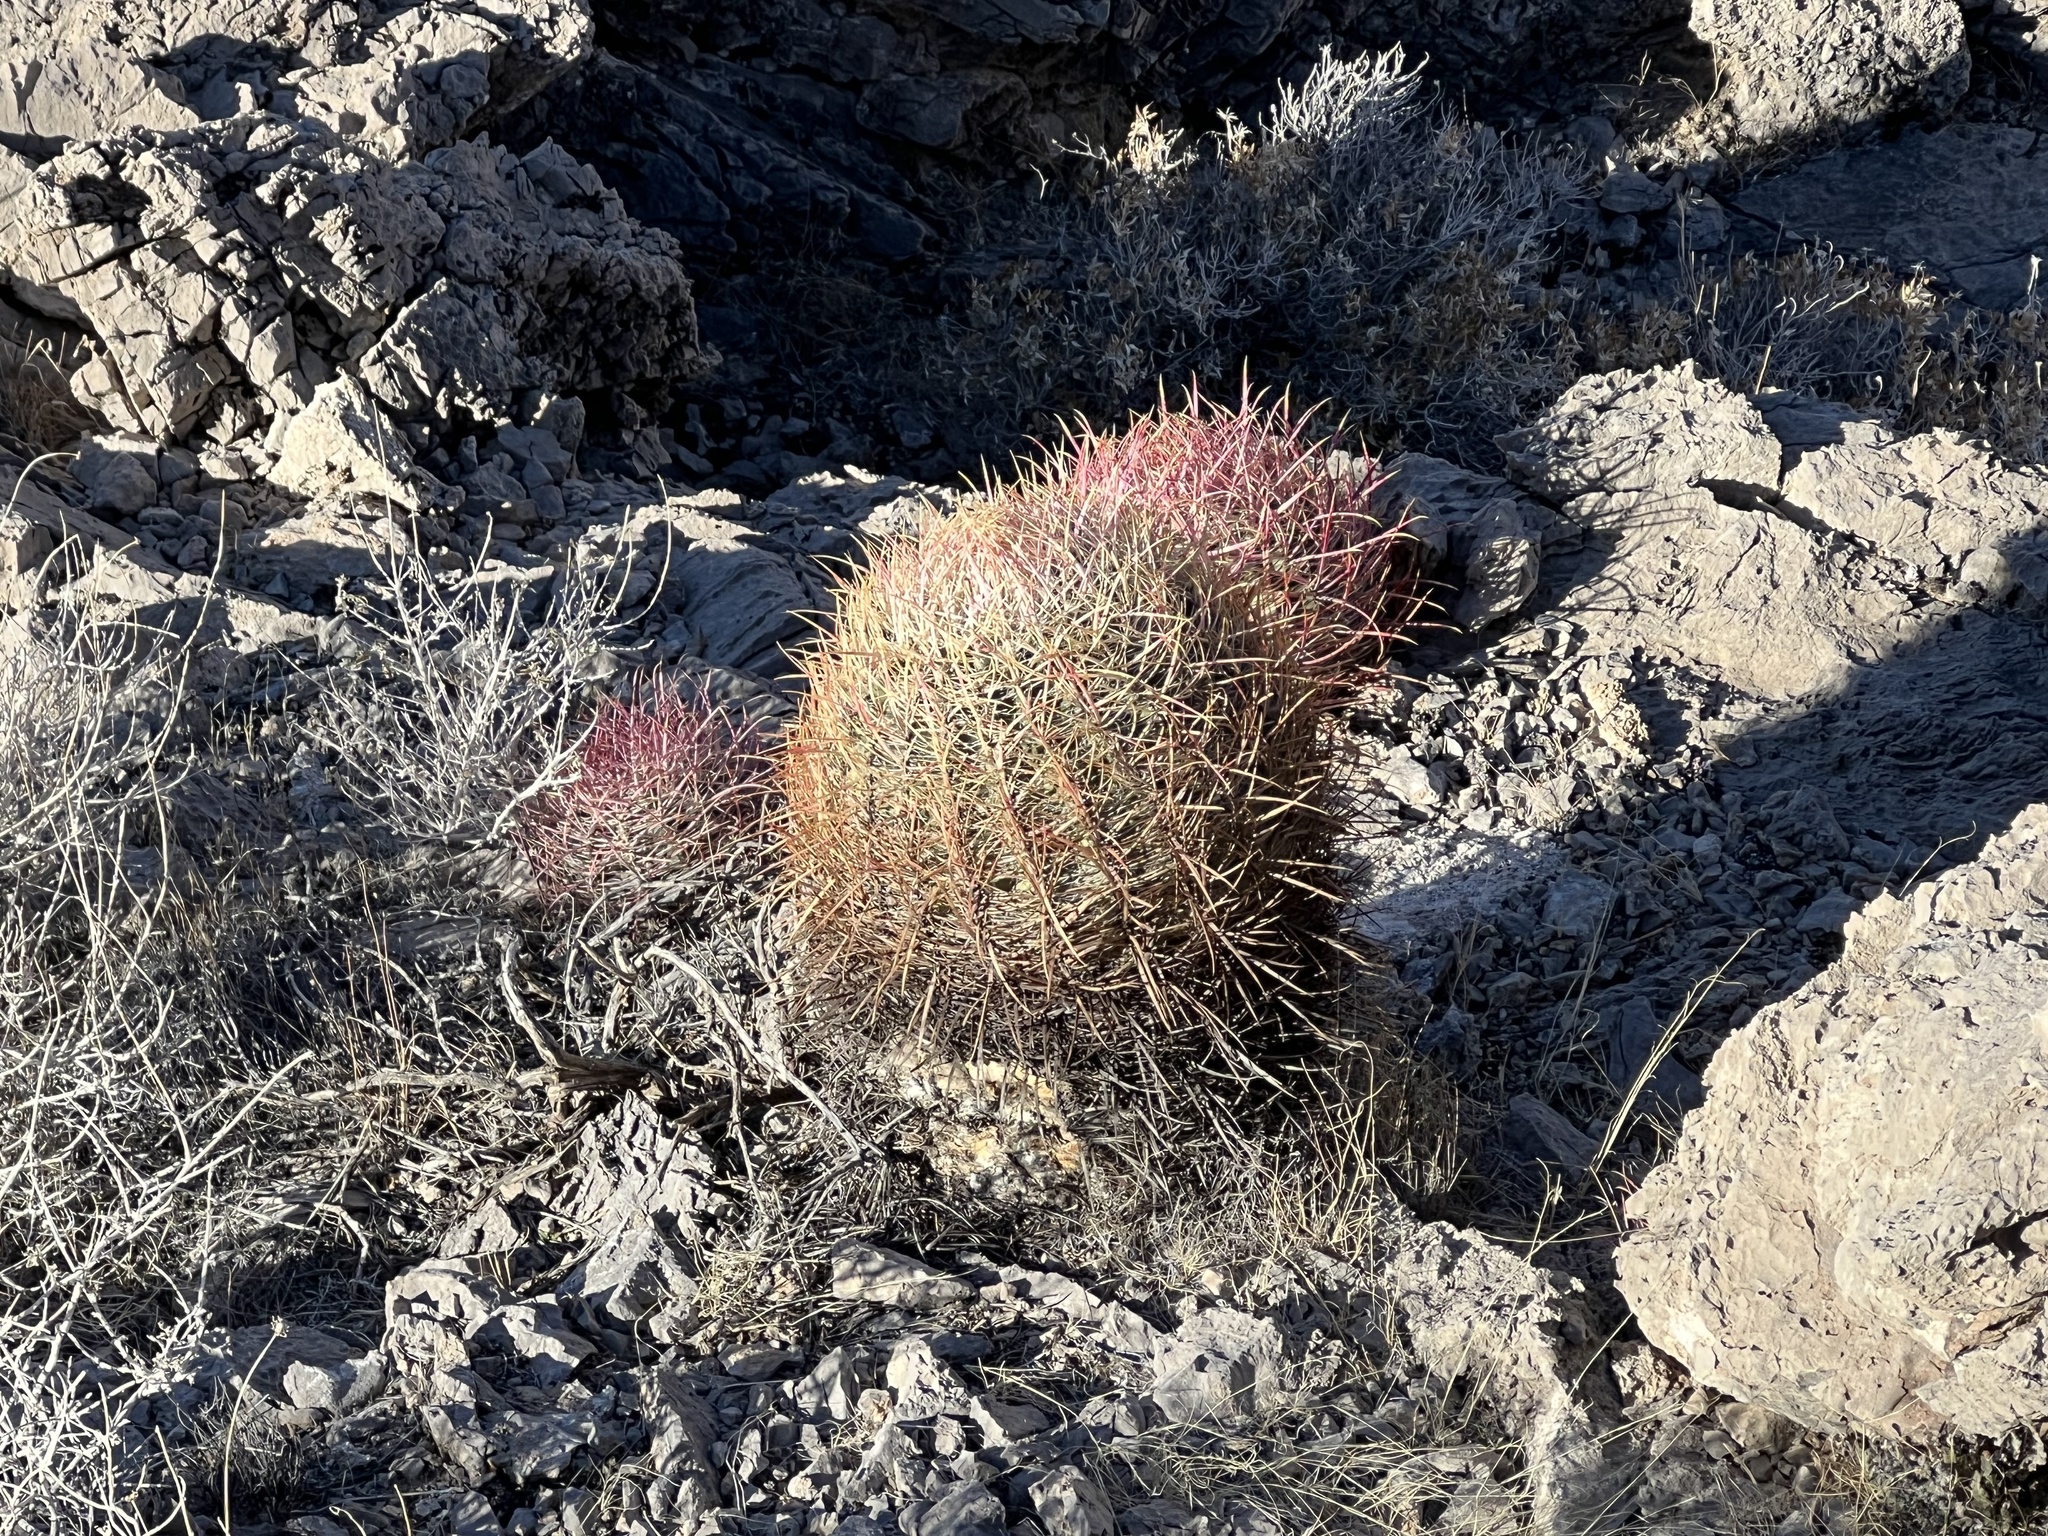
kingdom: Plantae
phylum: Tracheophyta
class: Magnoliopsida
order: Caryophyllales
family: Cactaceae
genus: Ferocactus
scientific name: Ferocactus cylindraceus
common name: California barrel cactus
